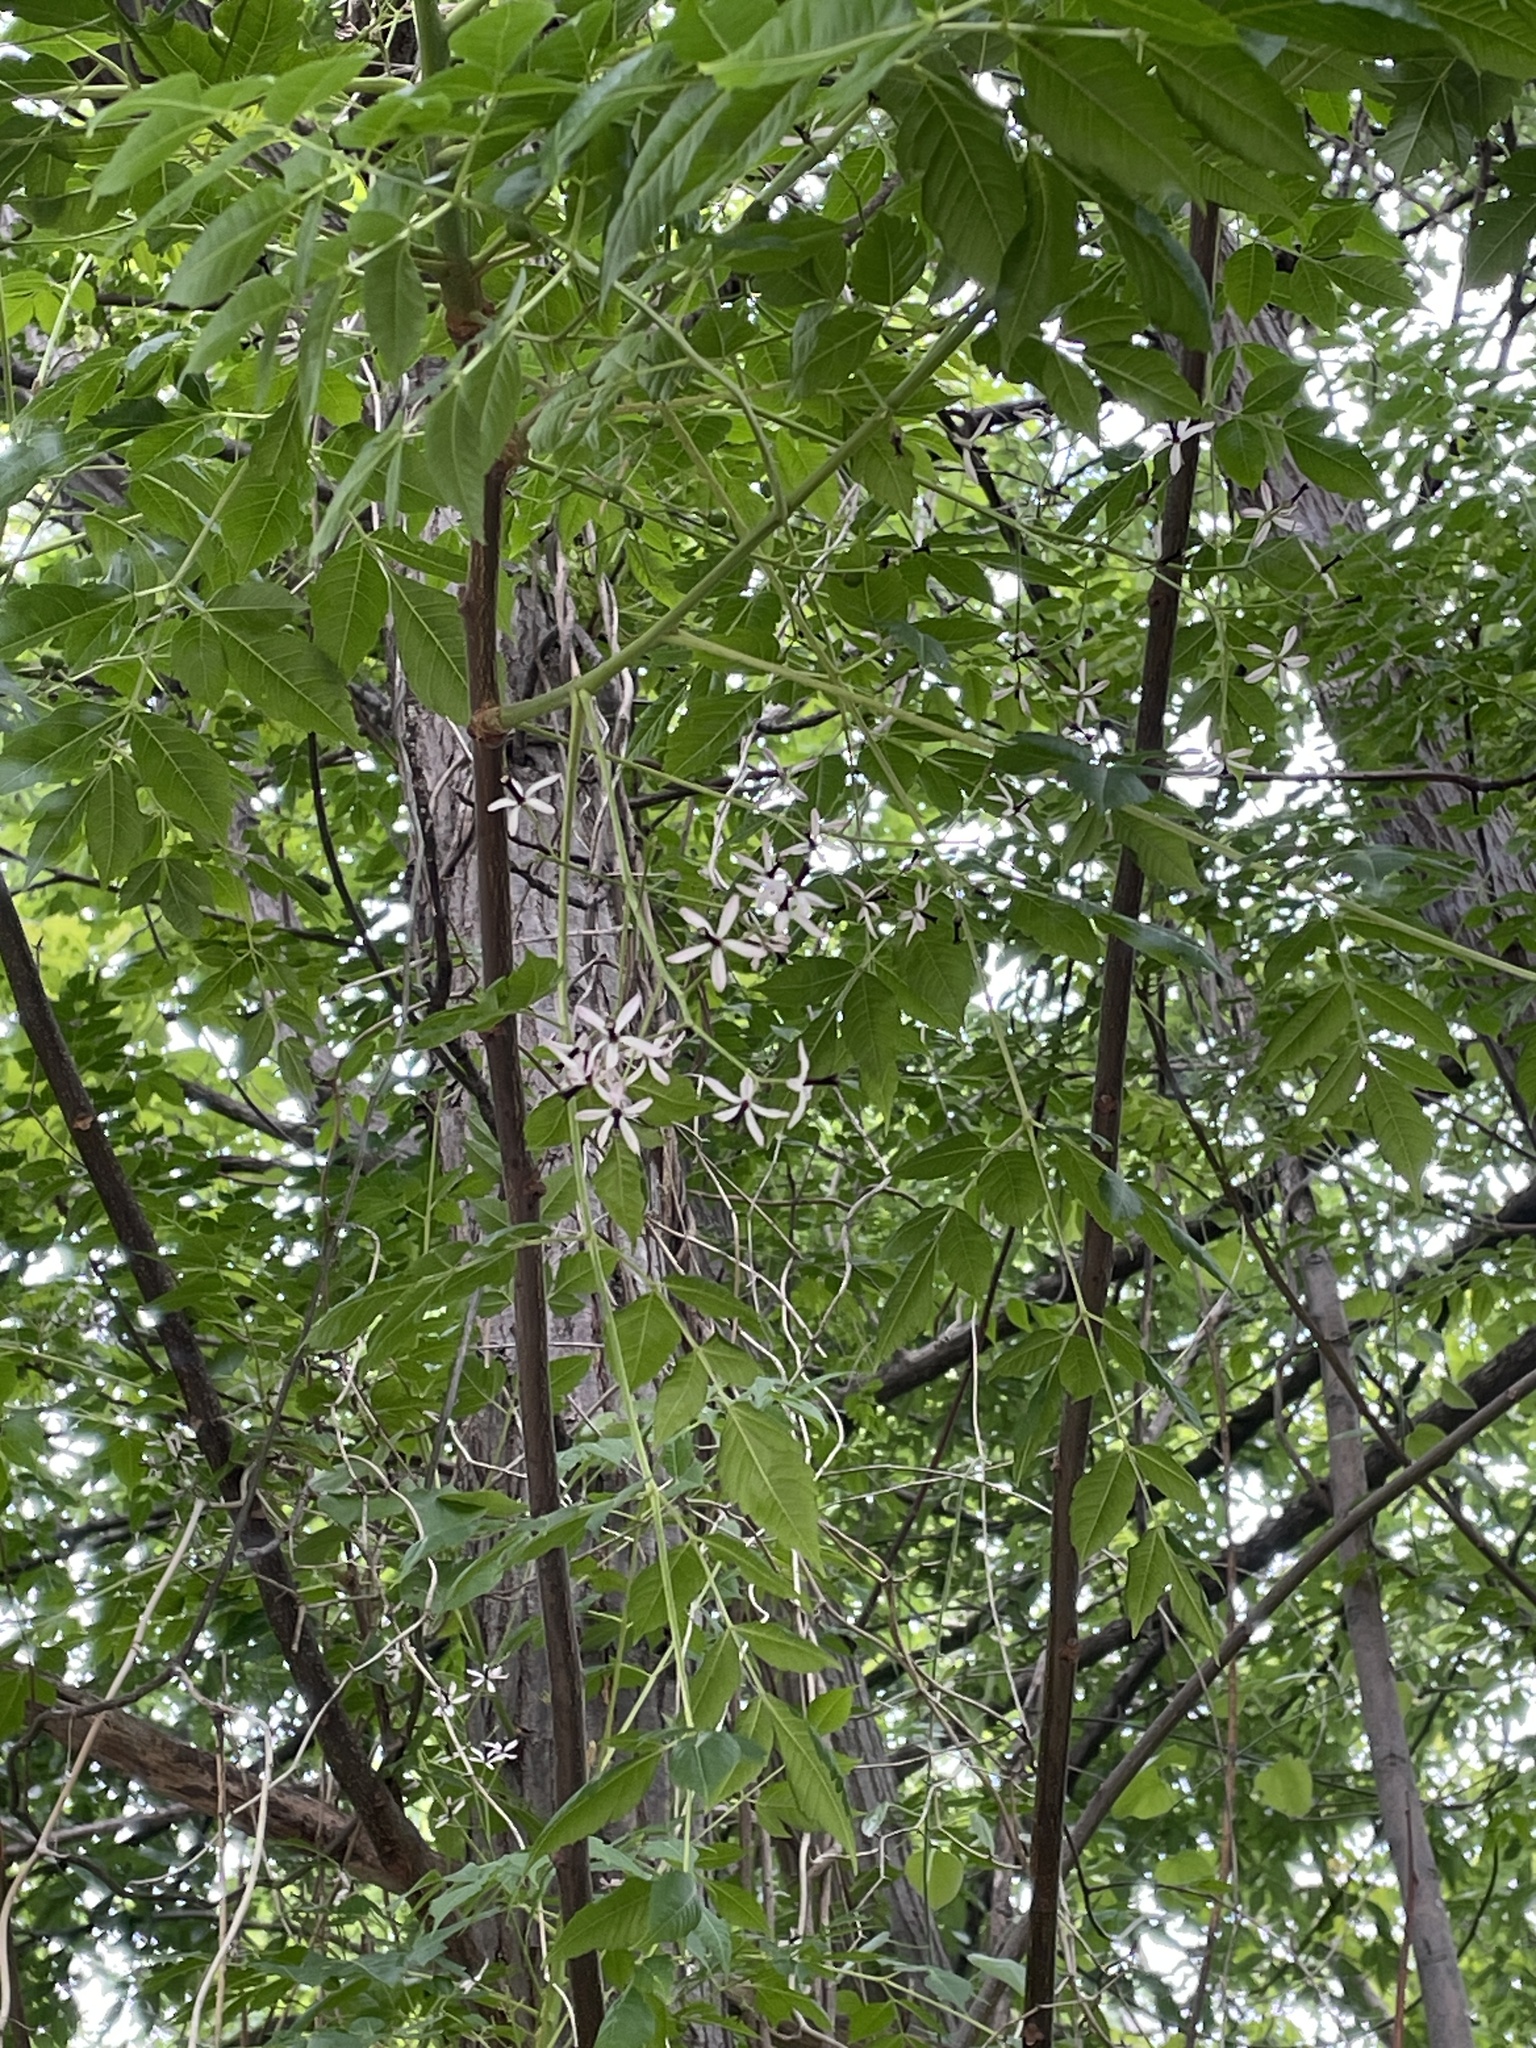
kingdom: Plantae
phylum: Tracheophyta
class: Magnoliopsida
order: Sapindales
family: Meliaceae
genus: Melia
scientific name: Melia azedarach
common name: Chinaberrytree
